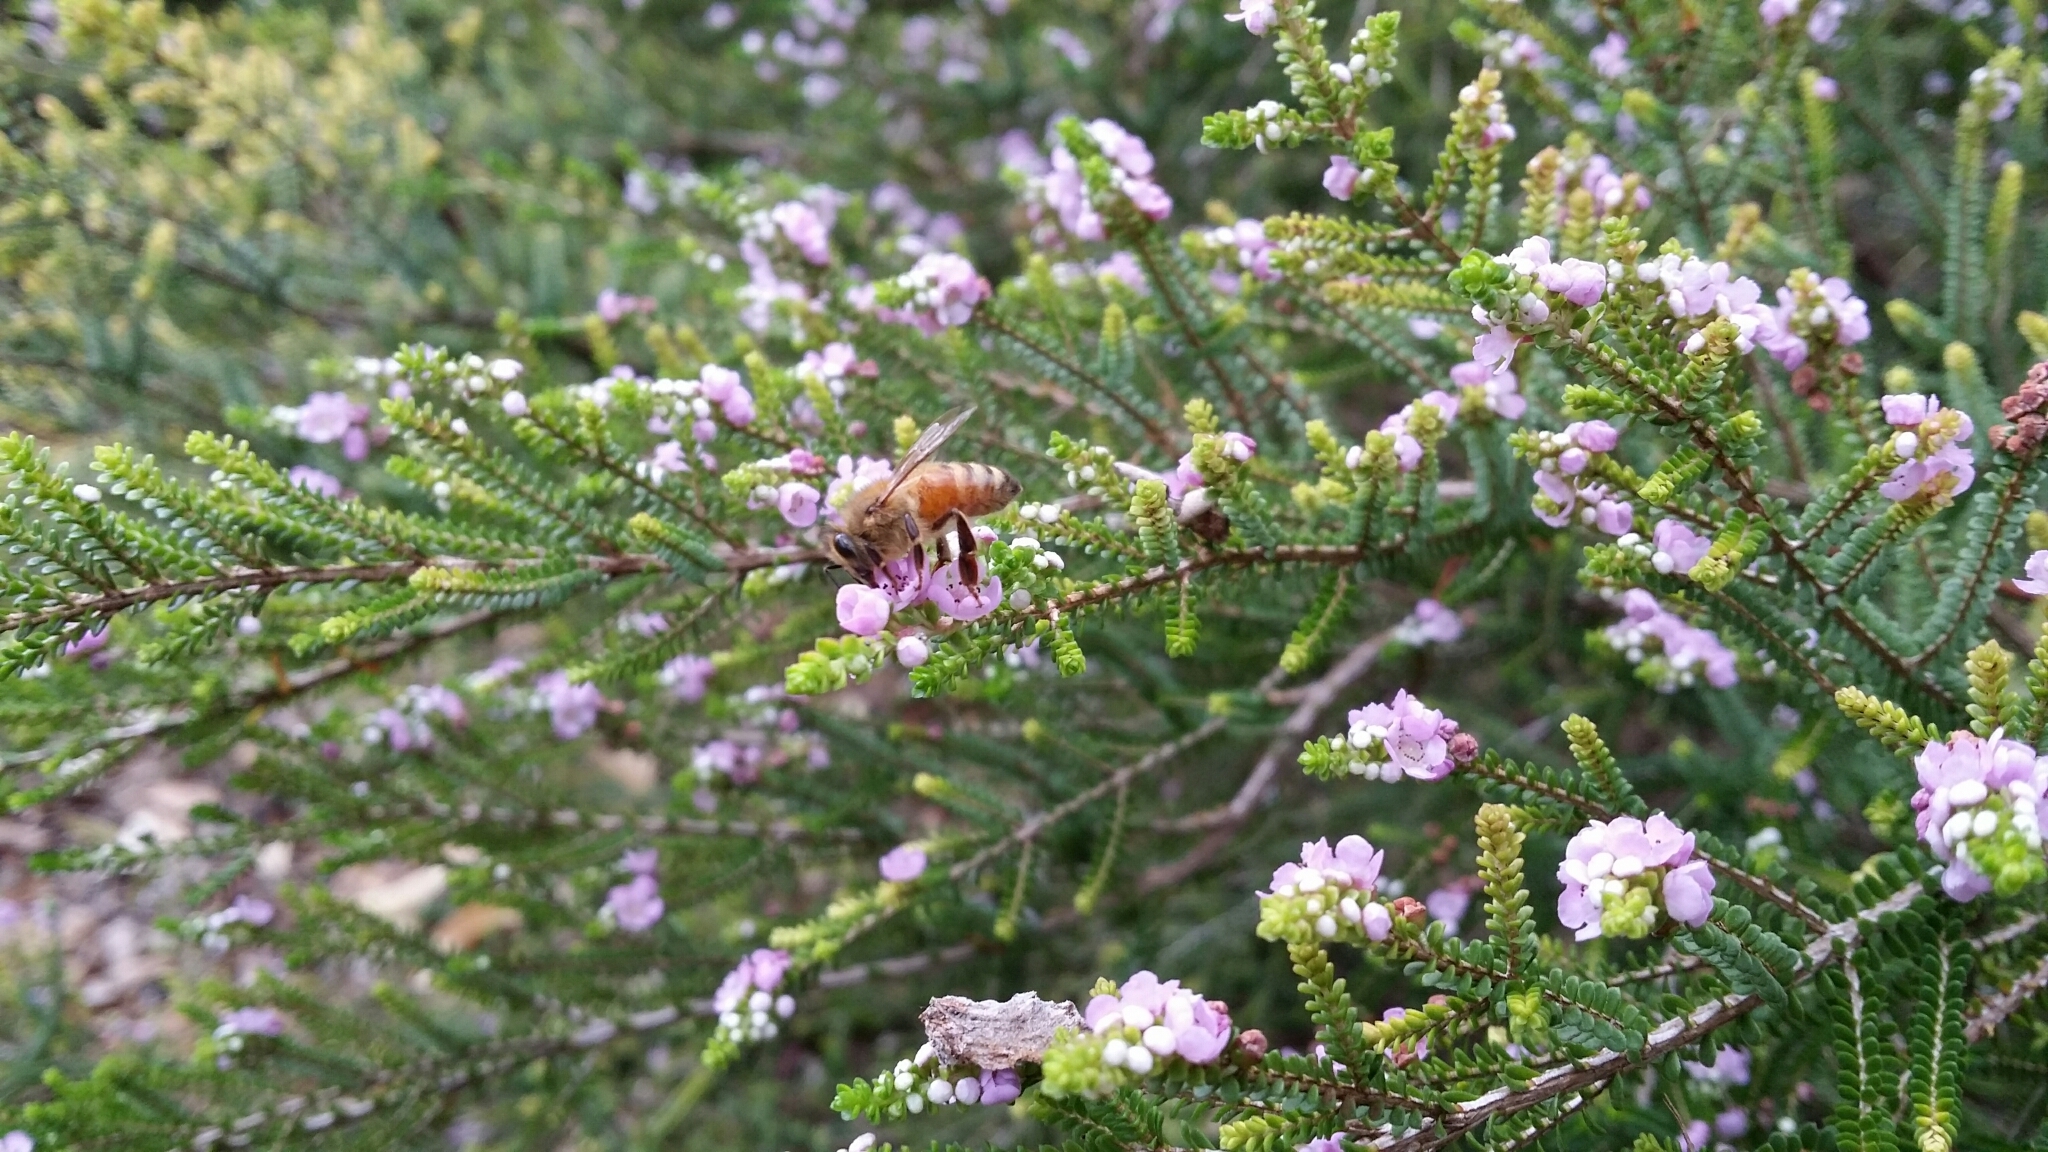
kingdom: Animalia
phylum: Arthropoda
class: Insecta
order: Hymenoptera
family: Apidae
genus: Apis
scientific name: Apis mellifera
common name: Honey bee
